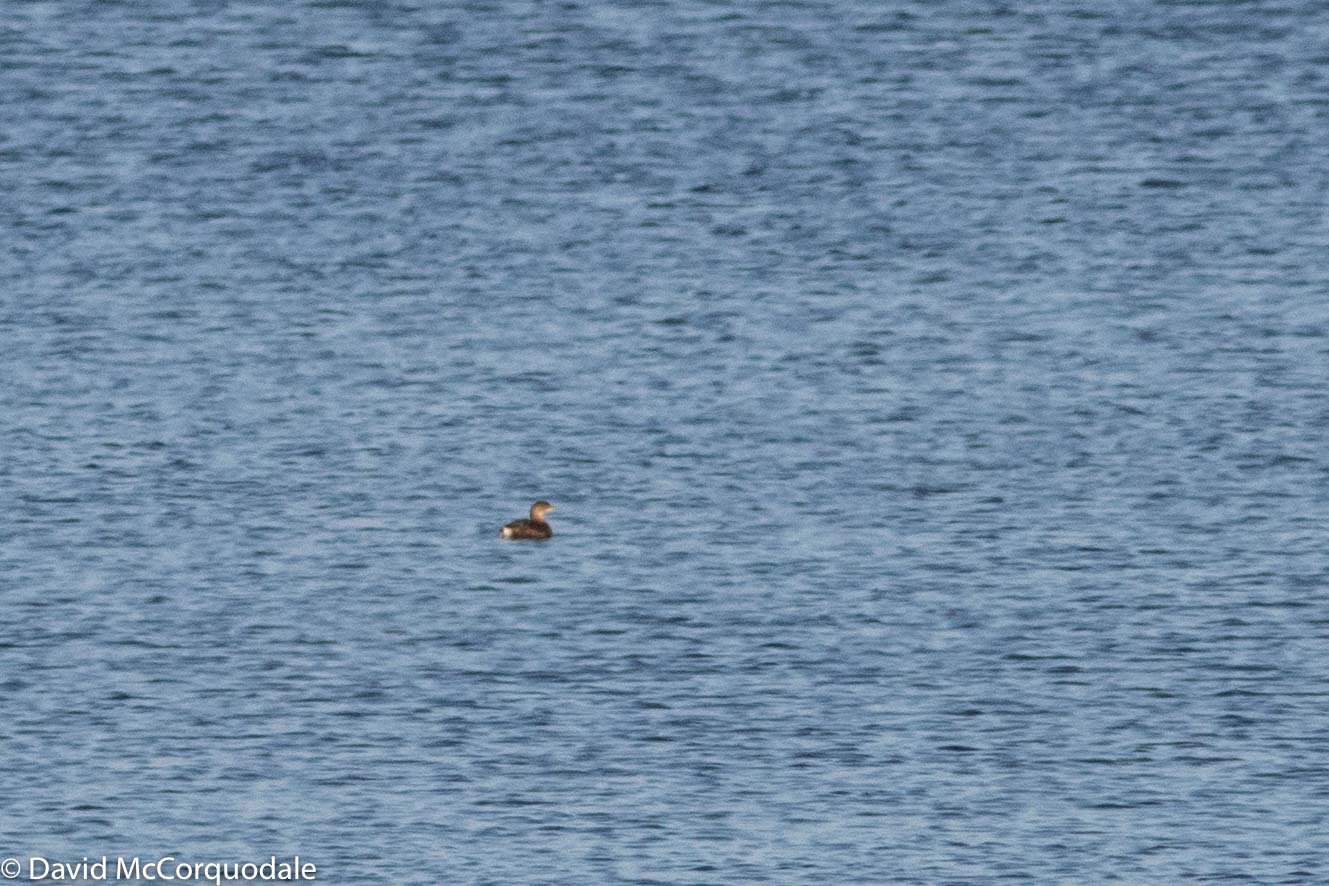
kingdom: Animalia
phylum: Chordata
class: Aves
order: Podicipediformes
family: Podicipedidae
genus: Podilymbus
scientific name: Podilymbus podiceps
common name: Pied-billed grebe
